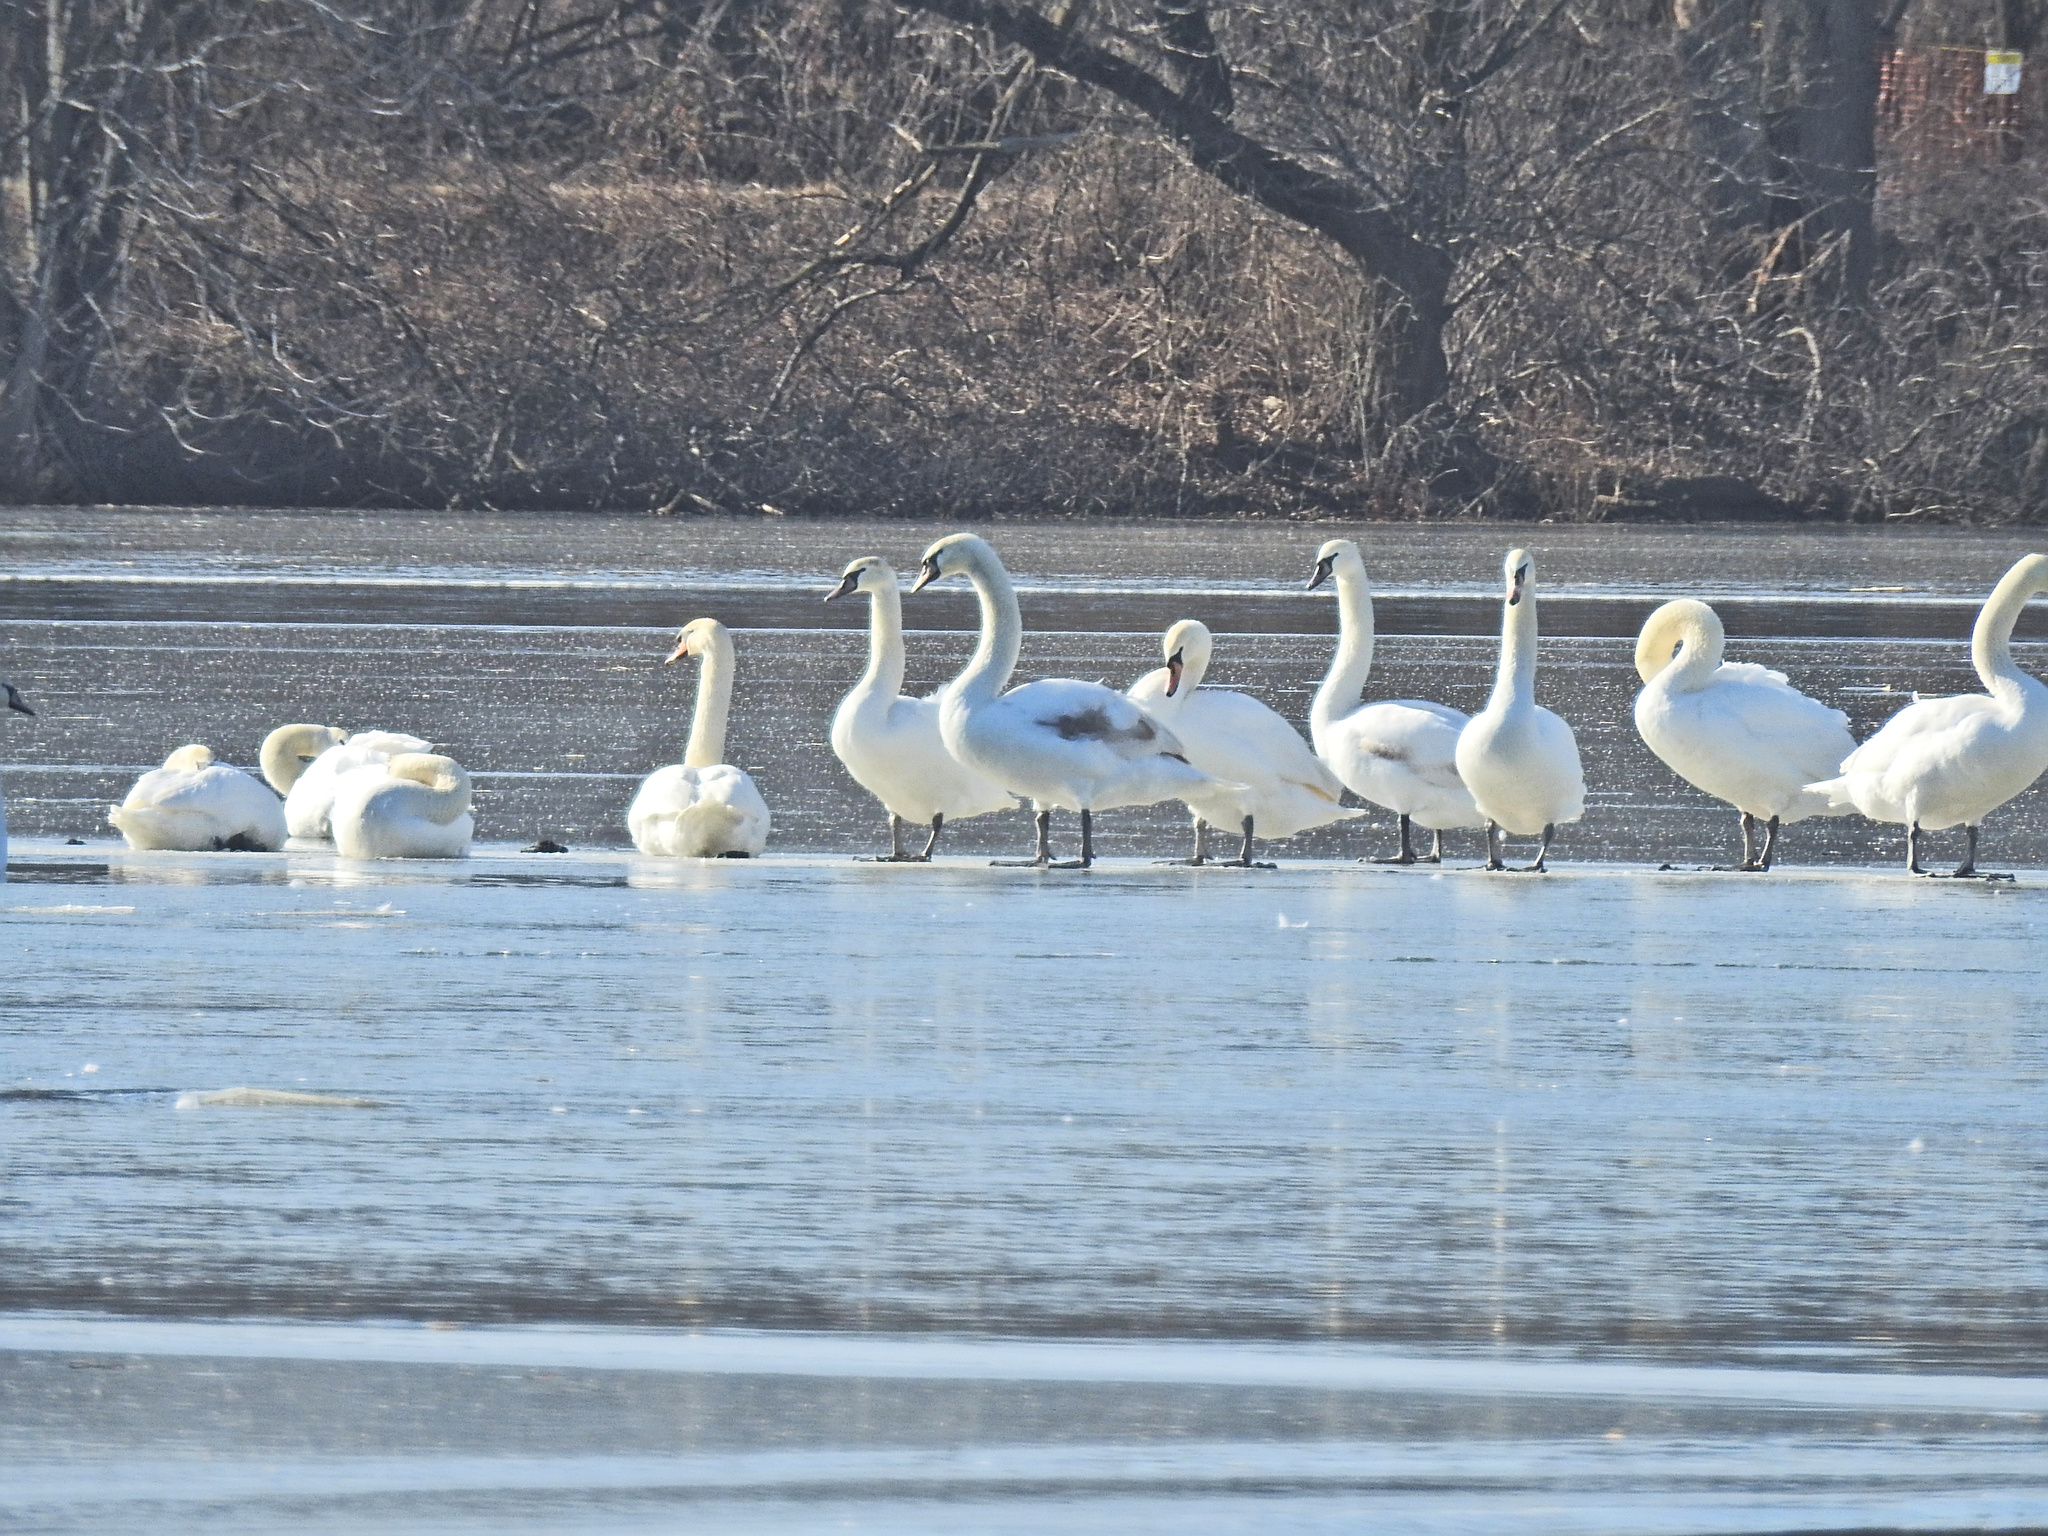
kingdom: Animalia
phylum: Chordata
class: Aves
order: Anseriformes
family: Anatidae
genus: Cygnus
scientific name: Cygnus olor
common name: Mute swan
